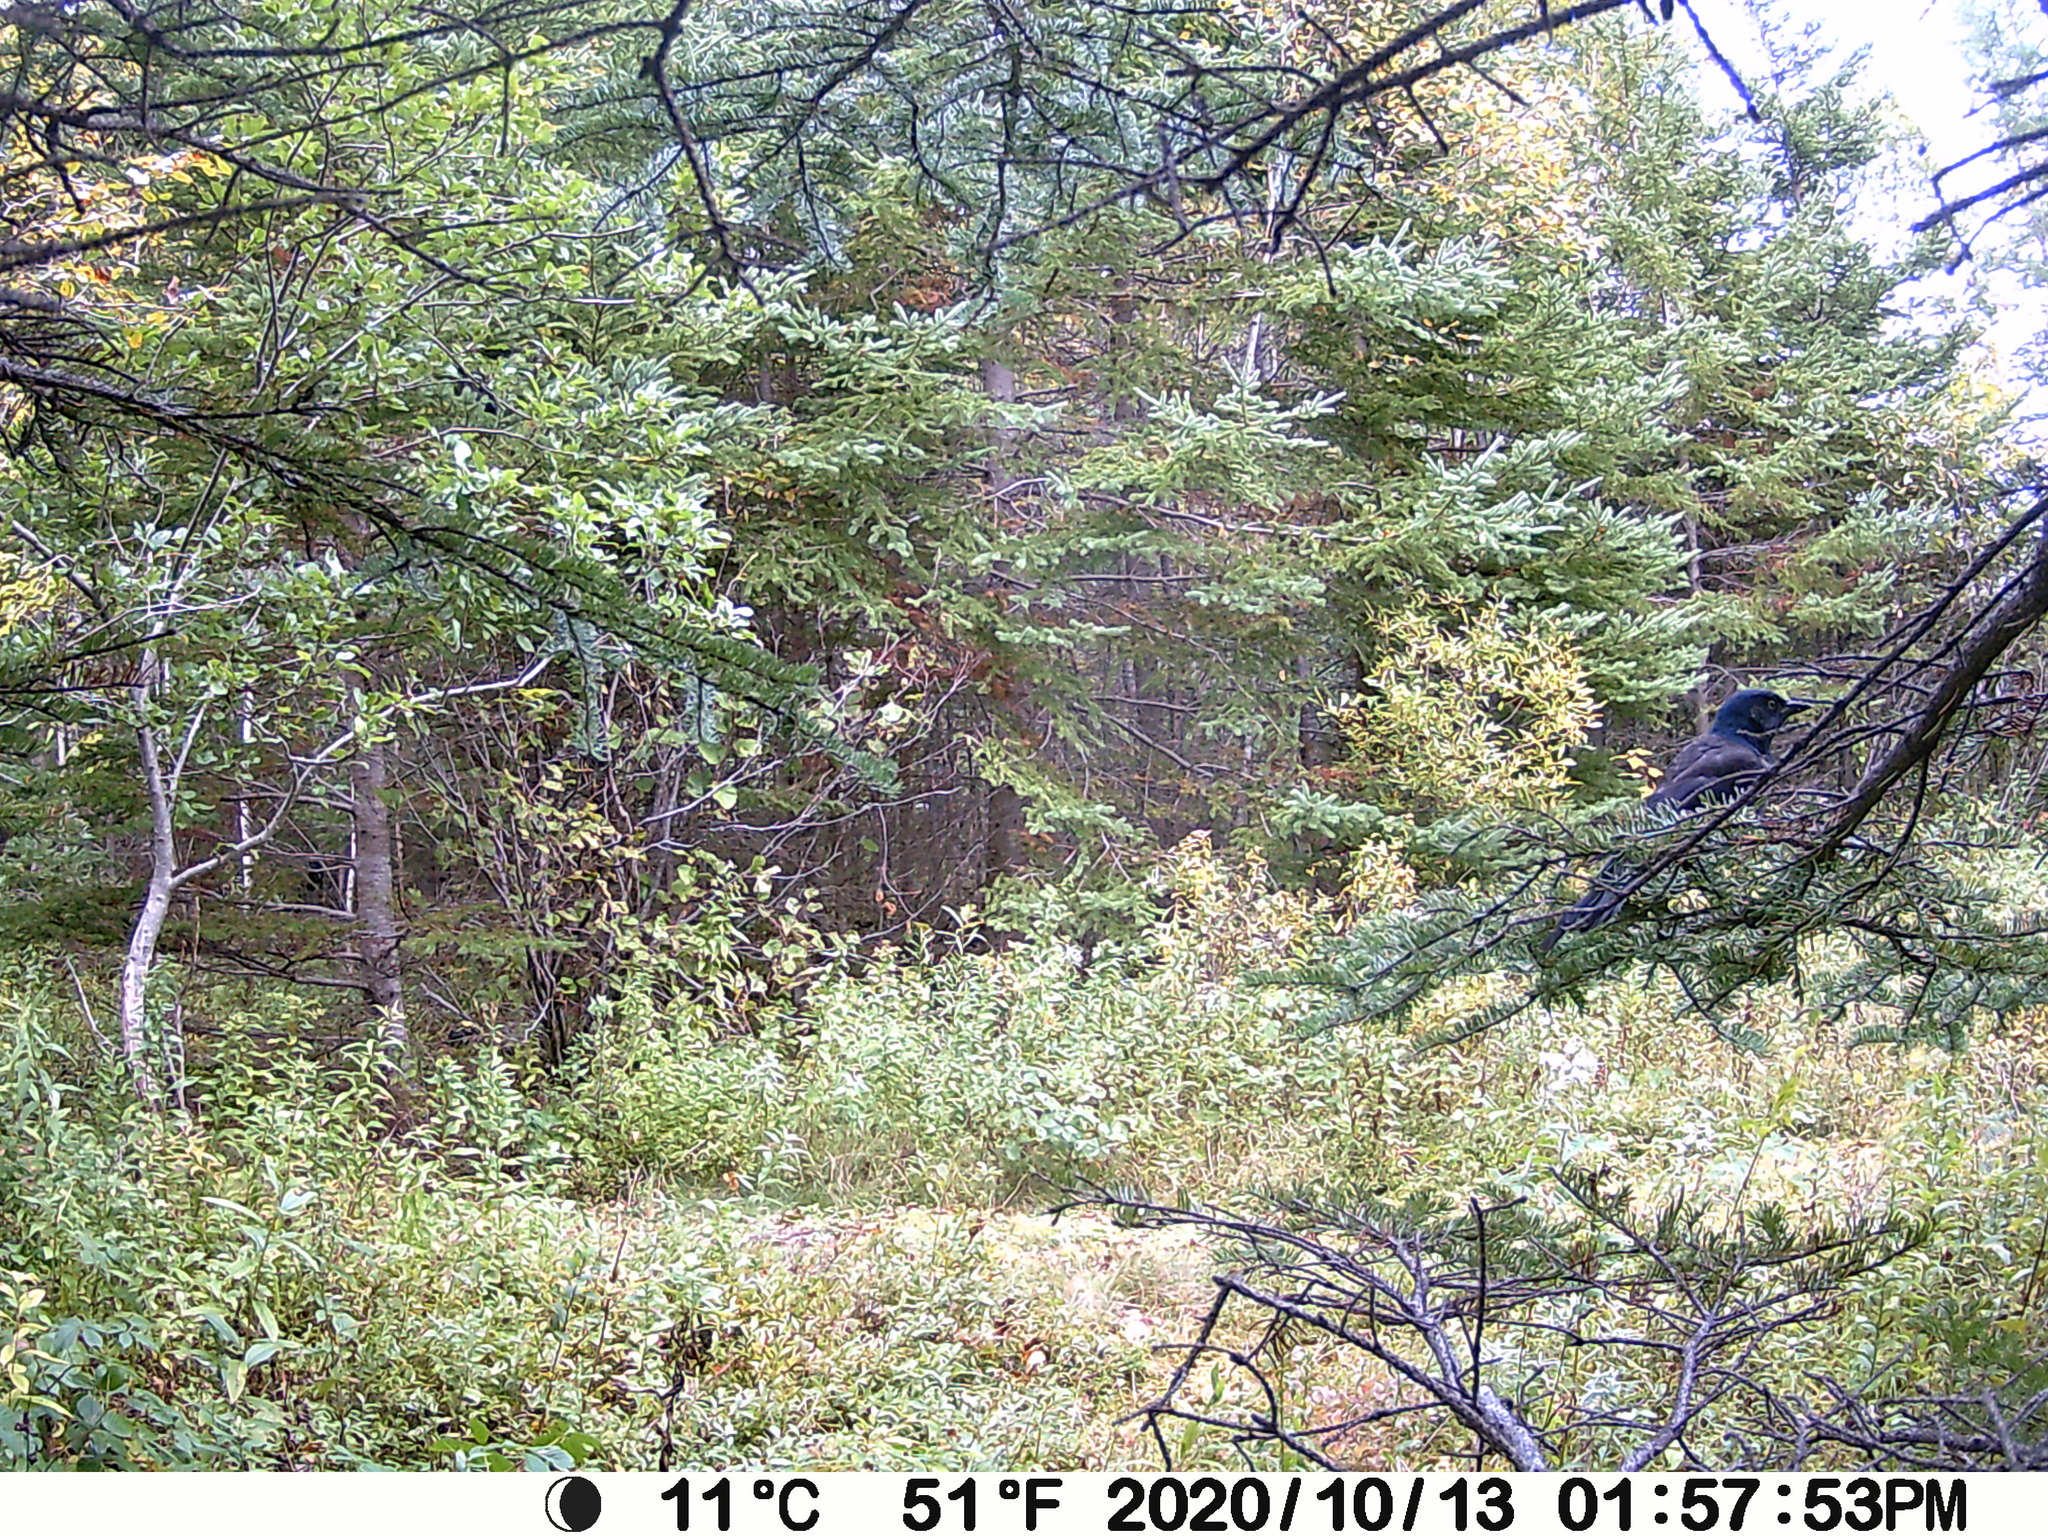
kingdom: Animalia
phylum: Chordata
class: Aves
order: Passeriformes
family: Icteridae
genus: Quiscalus
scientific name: Quiscalus quiscula
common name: Common grackle
